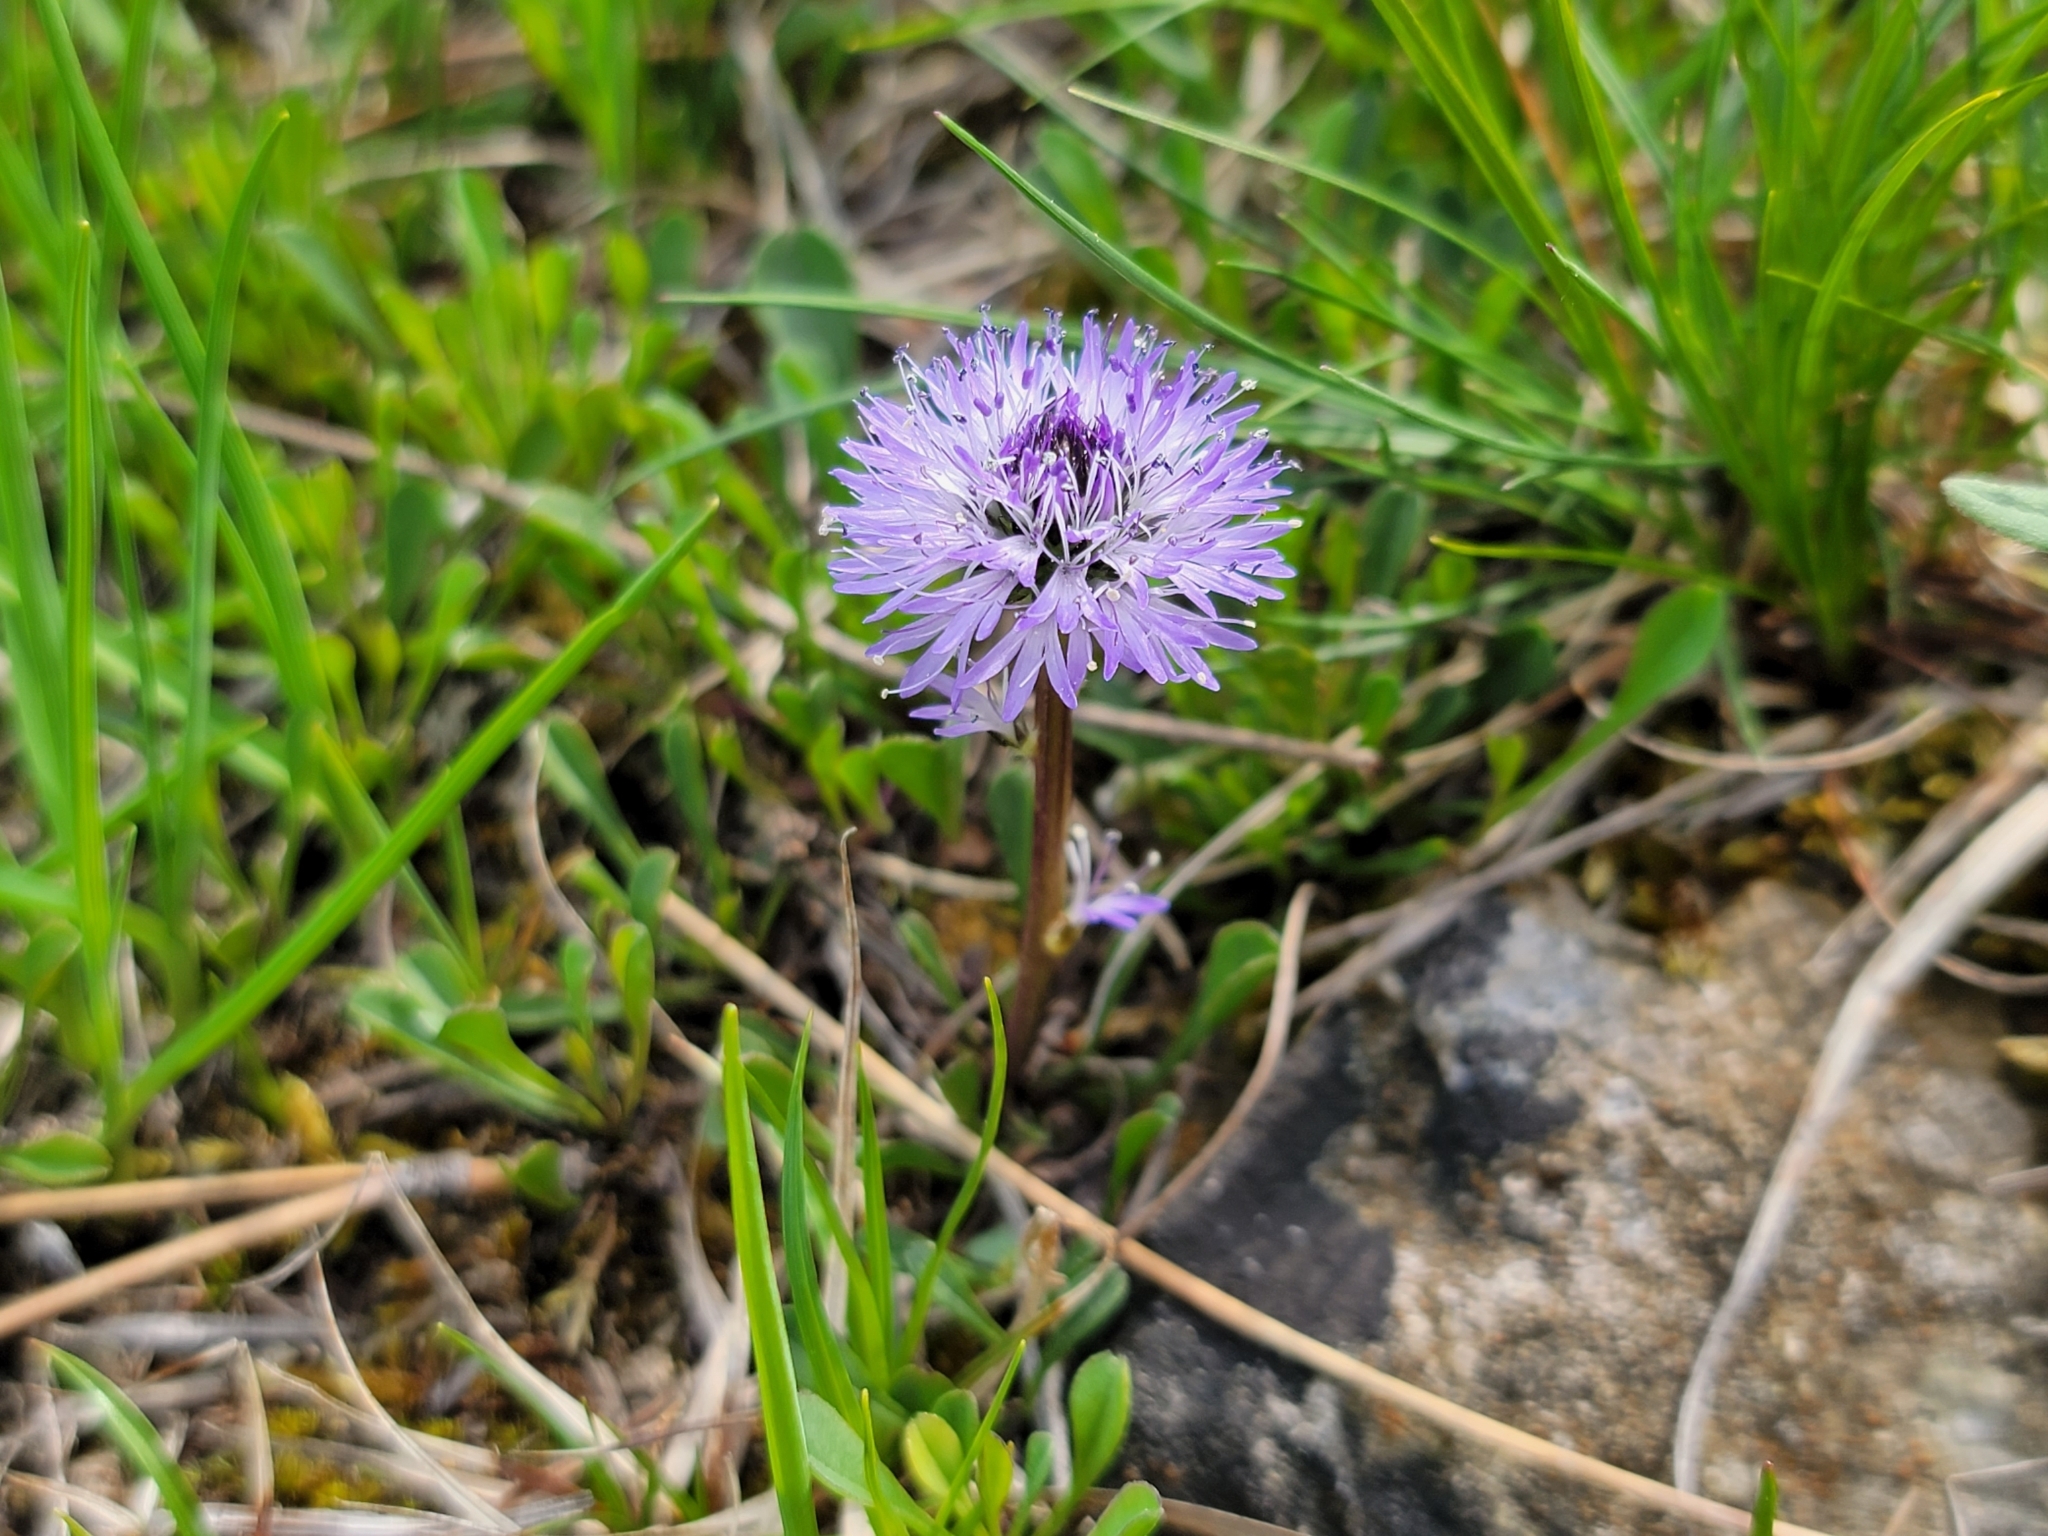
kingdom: Plantae
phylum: Tracheophyta
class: Magnoliopsida
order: Lamiales
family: Plantaginaceae
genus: Globularia
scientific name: Globularia cordifolia
